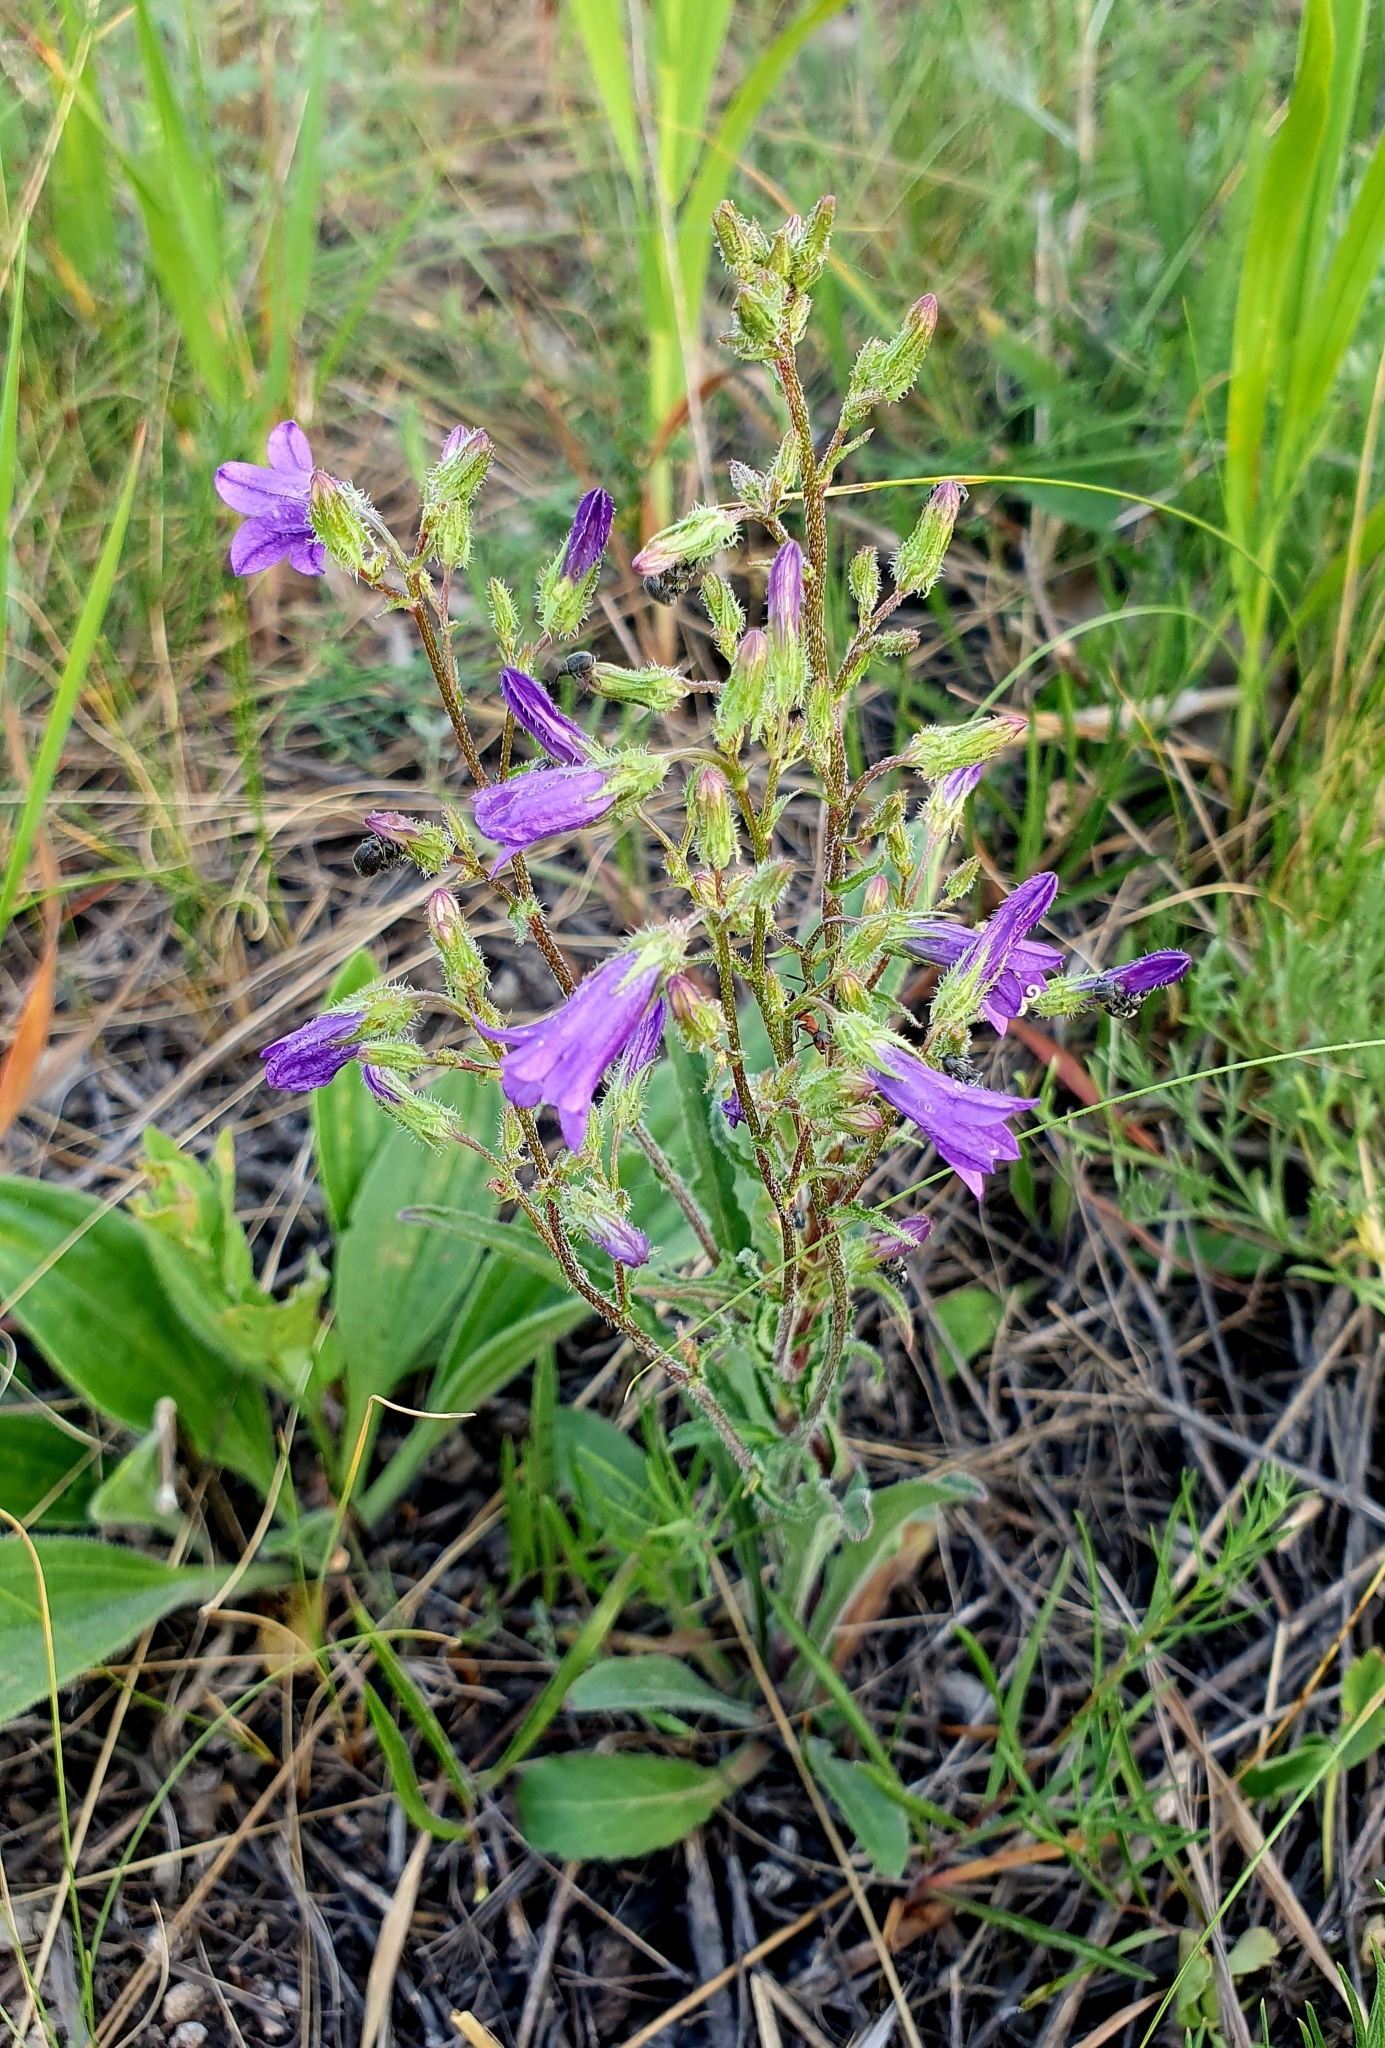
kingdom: Plantae
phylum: Tracheophyta
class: Magnoliopsida
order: Asterales
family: Campanulaceae
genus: Campanula
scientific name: Campanula sibirica
